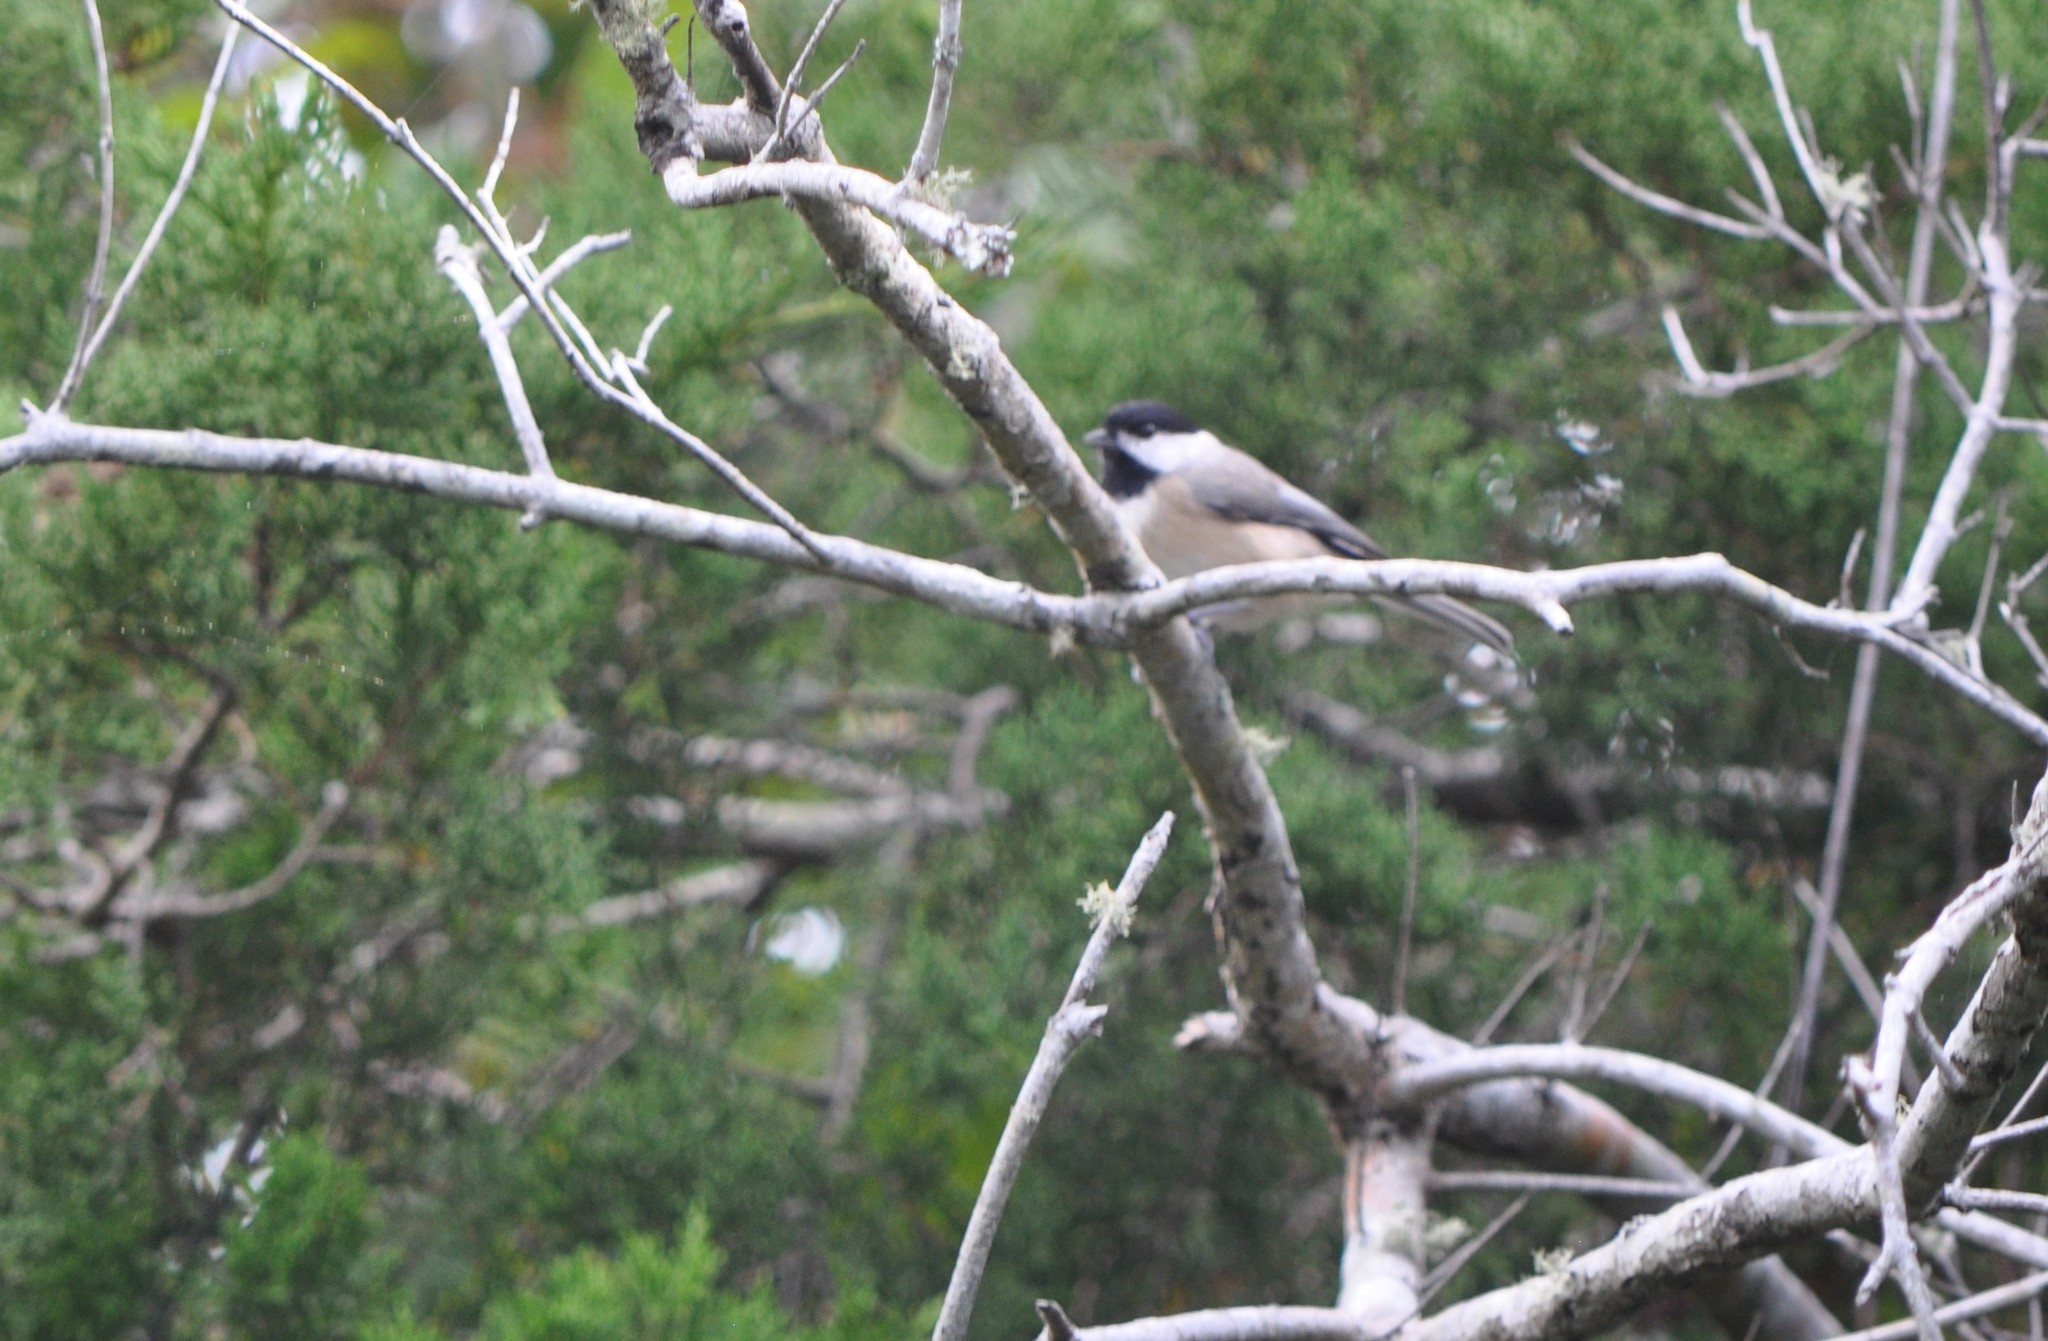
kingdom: Animalia
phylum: Chordata
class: Aves
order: Passeriformes
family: Paridae
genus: Poecile
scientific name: Poecile carolinensis
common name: Carolina chickadee
